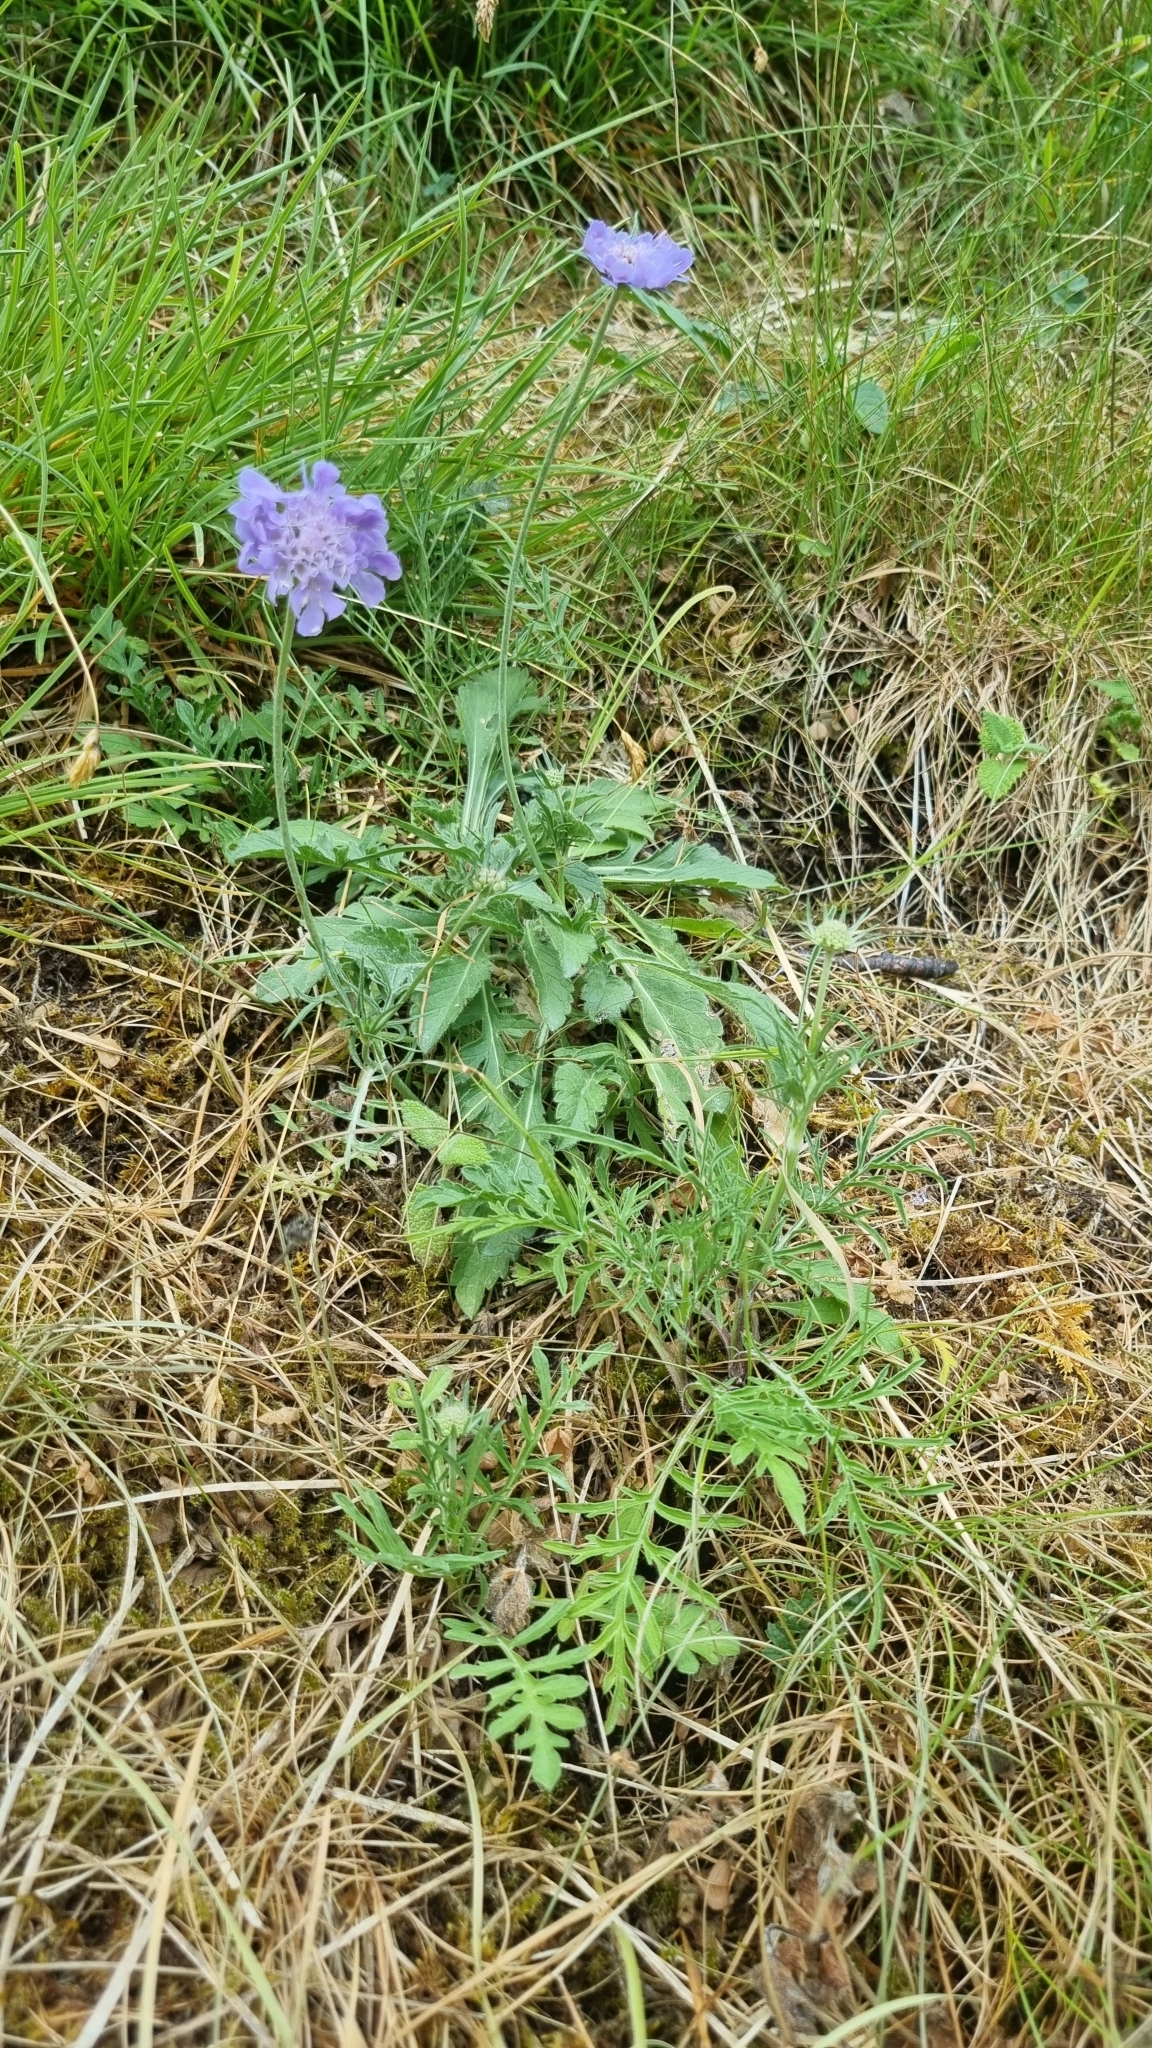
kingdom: Plantae
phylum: Tracheophyta
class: Magnoliopsida
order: Dipsacales
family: Caprifoliaceae
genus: Scabiosa
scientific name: Scabiosa columbaria
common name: Small scabious
